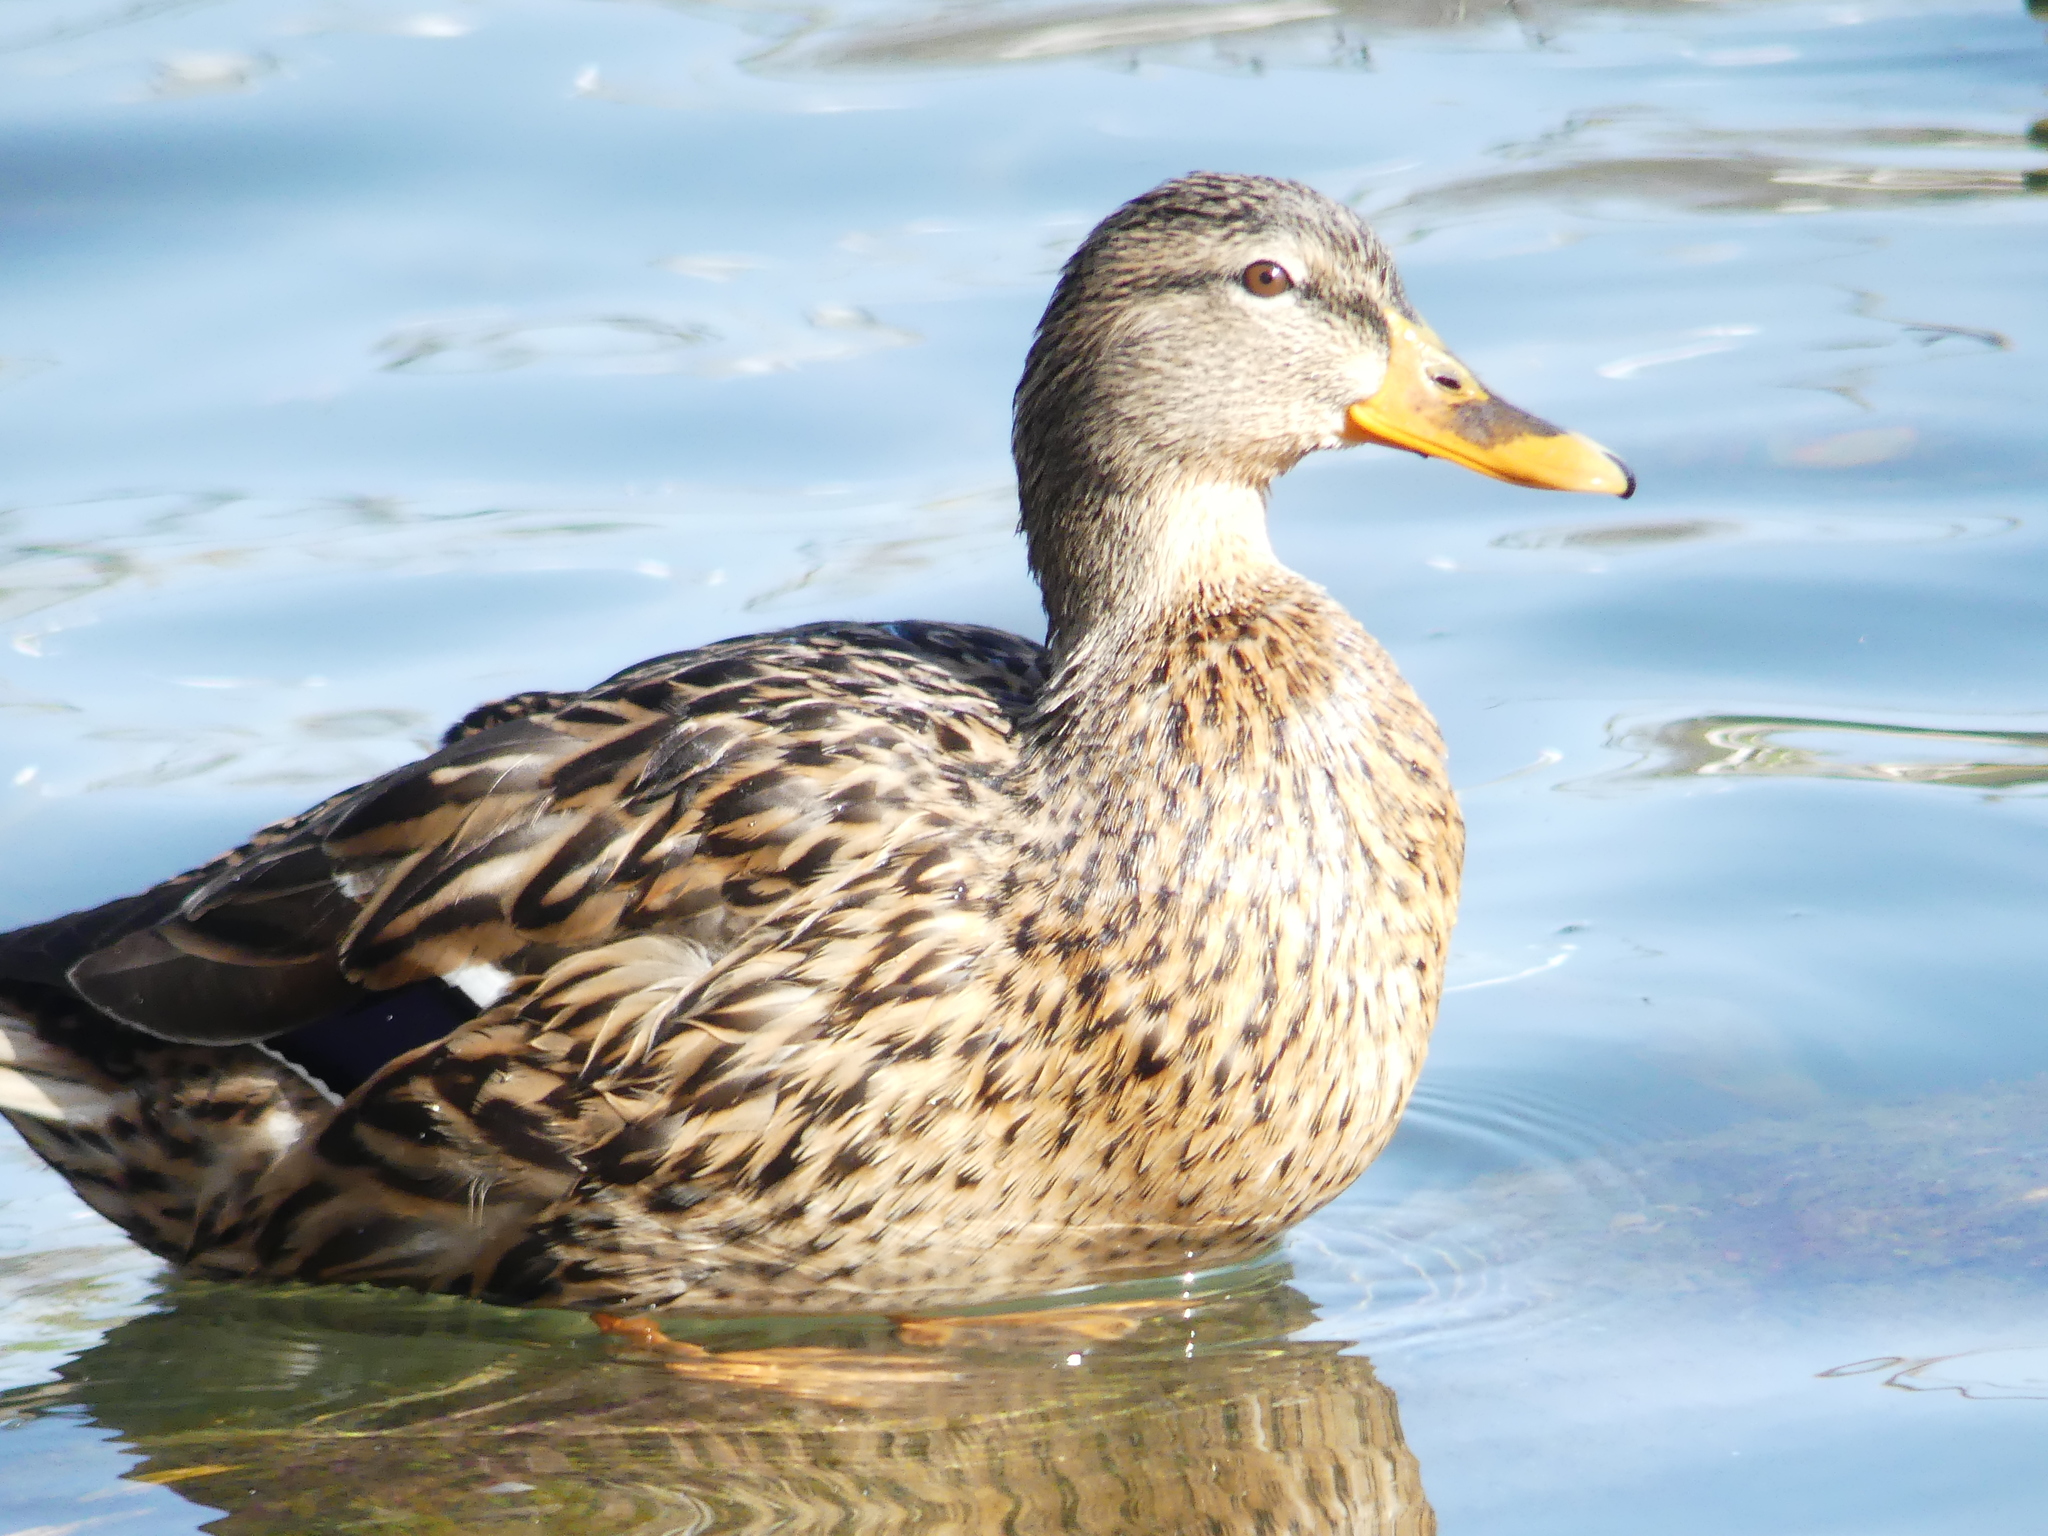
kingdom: Animalia
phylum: Chordata
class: Aves
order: Anseriformes
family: Anatidae
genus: Anas
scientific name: Anas platyrhynchos
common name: Mallard
